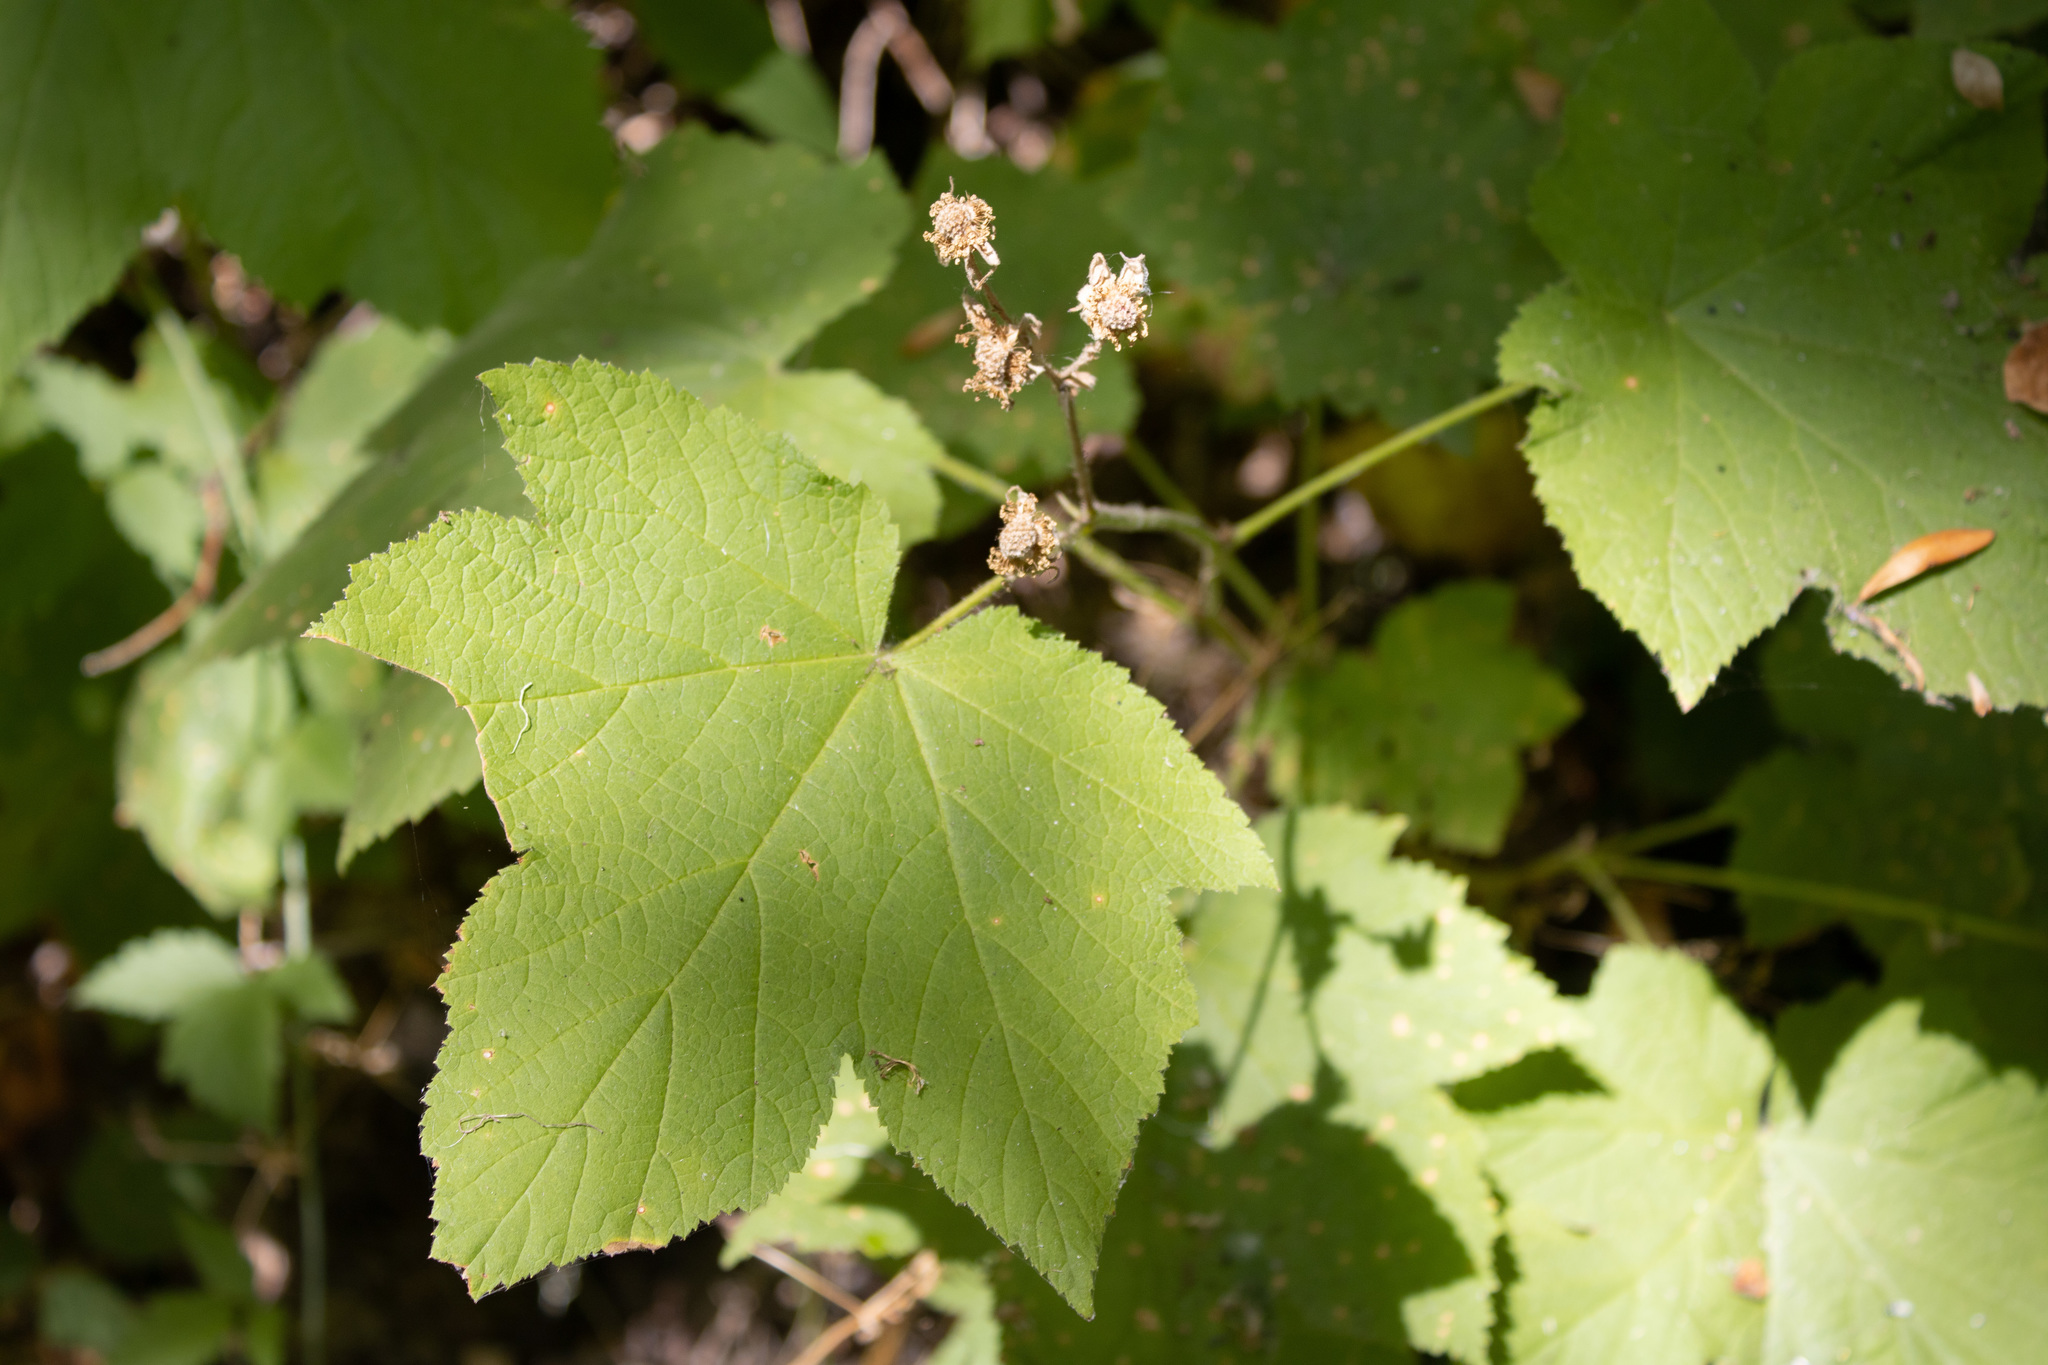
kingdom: Plantae
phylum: Tracheophyta
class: Magnoliopsida
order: Rosales
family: Rosaceae
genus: Rubus
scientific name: Rubus parviflorus
